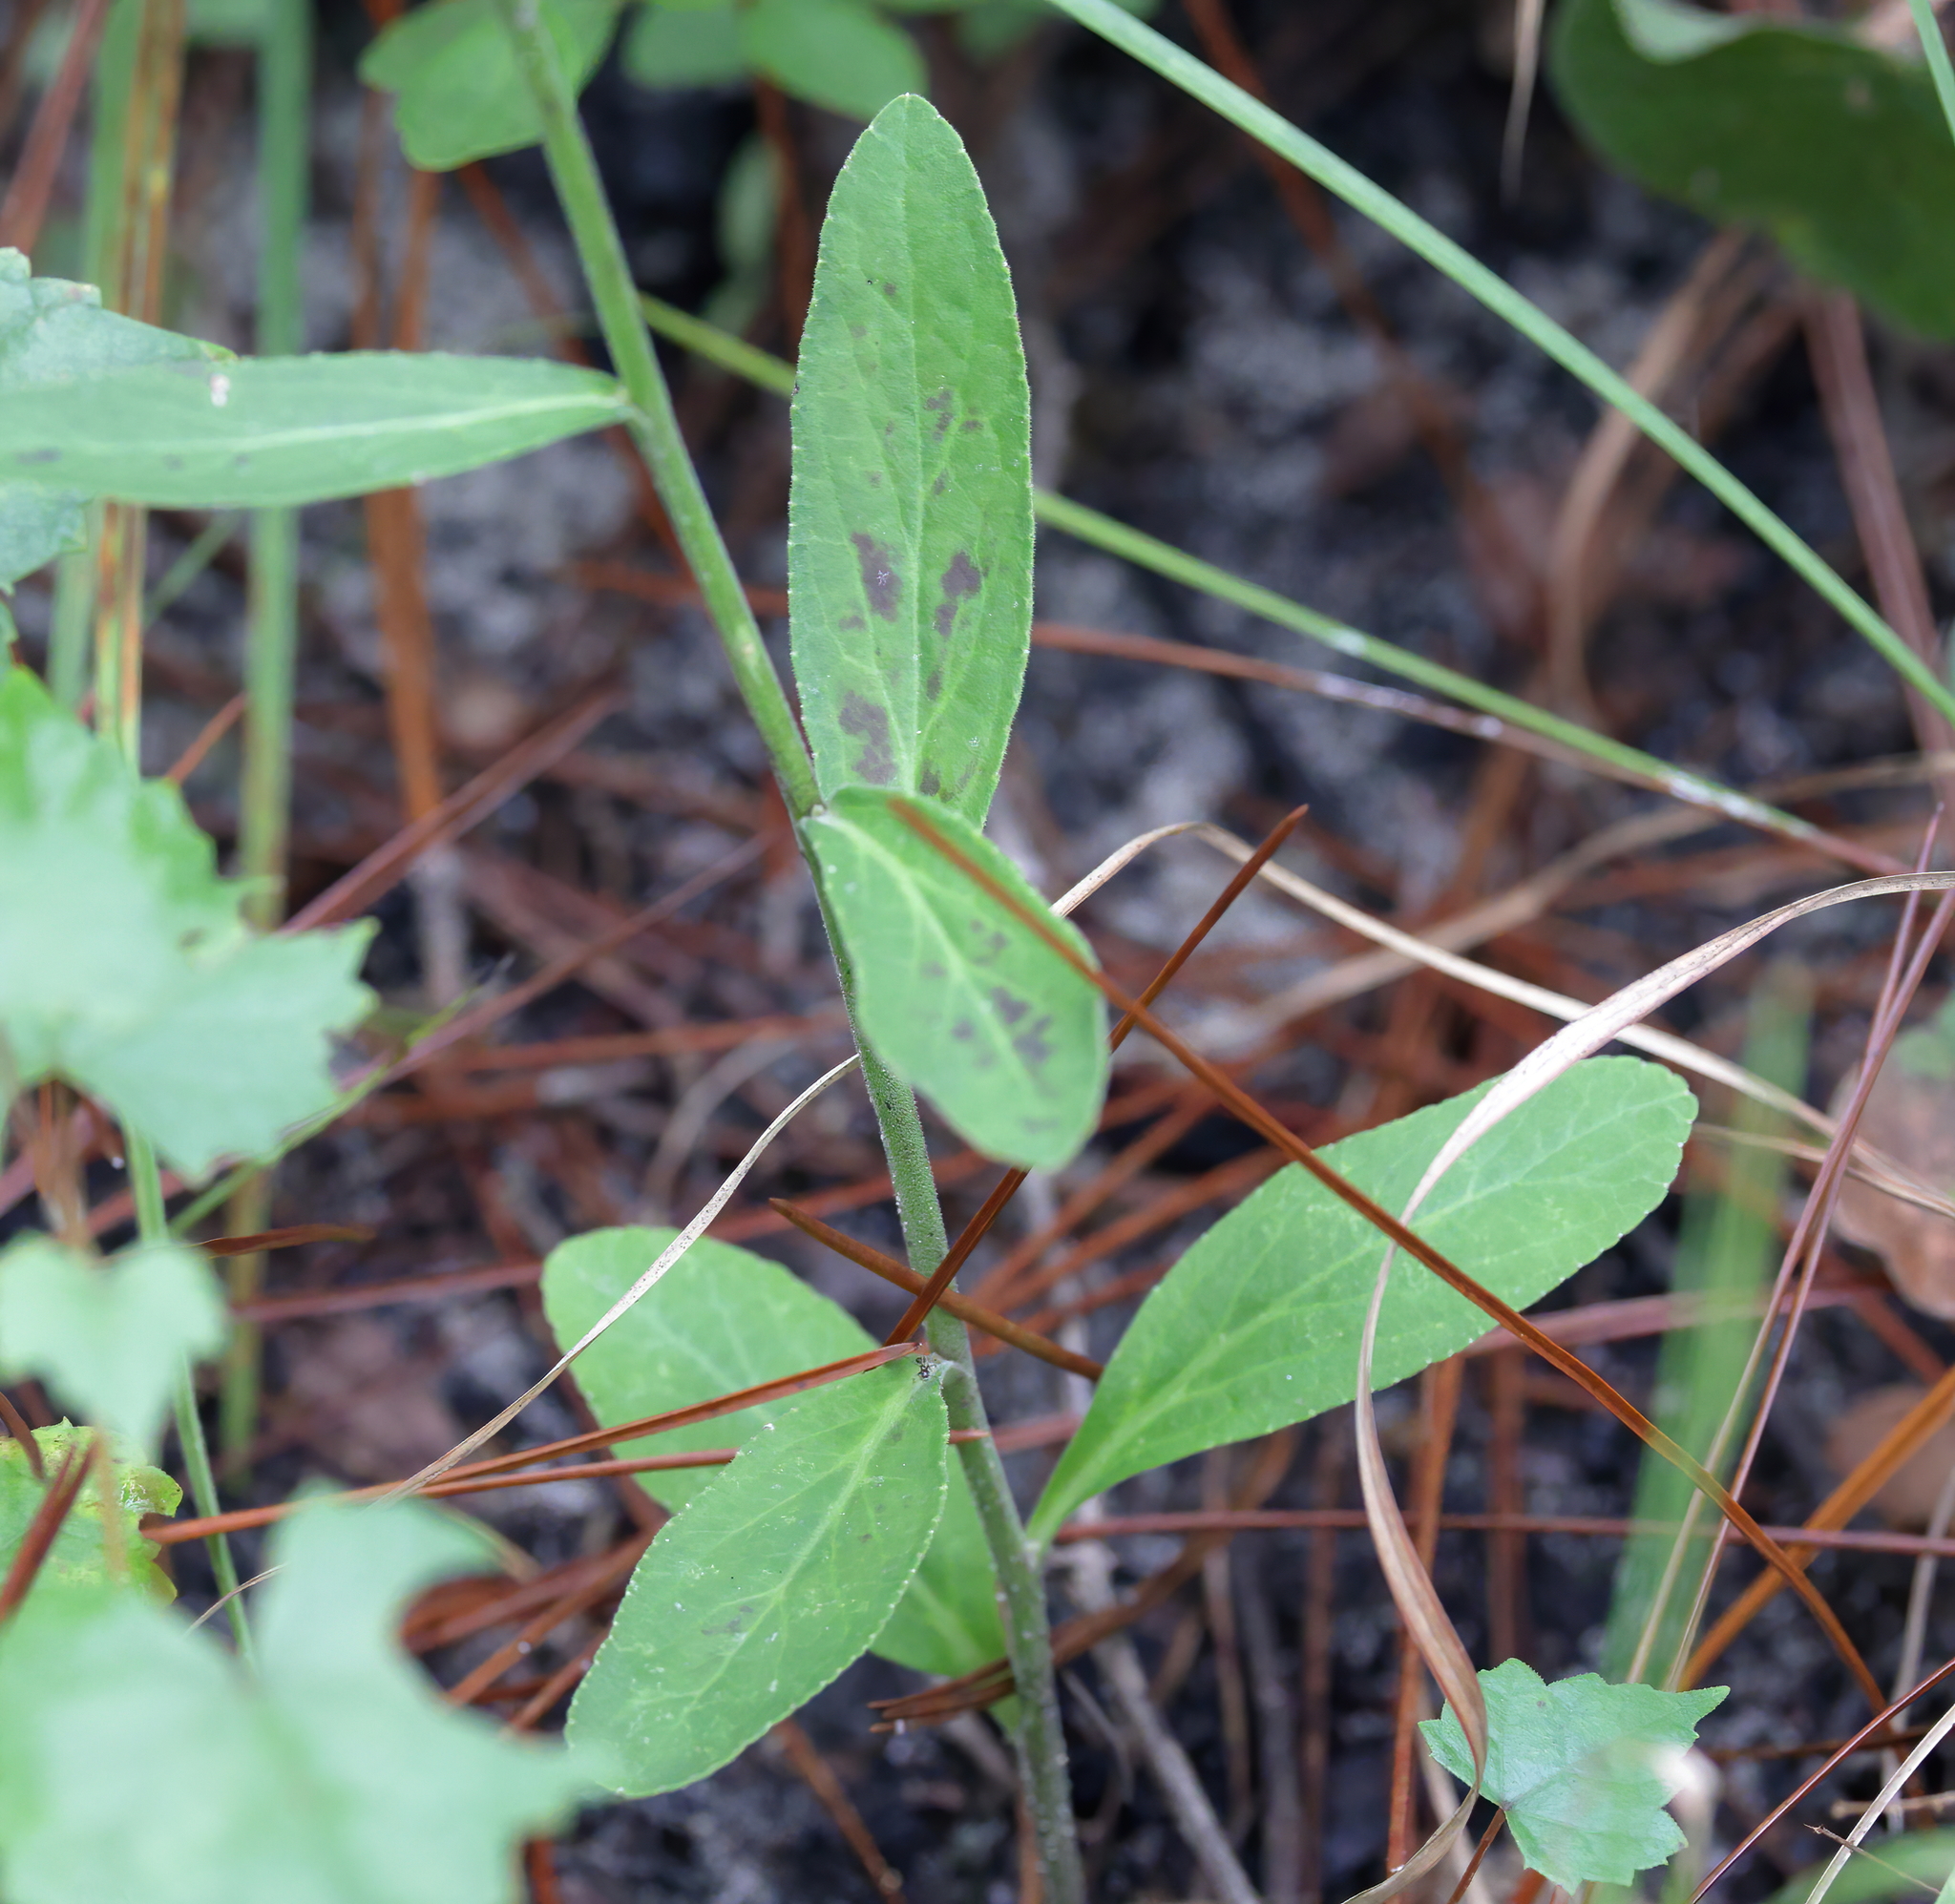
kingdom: Plantae
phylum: Tracheophyta
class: Magnoliopsida
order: Asterales
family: Campanulaceae
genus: Lobelia
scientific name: Lobelia puberula
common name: Purple dewdrop
